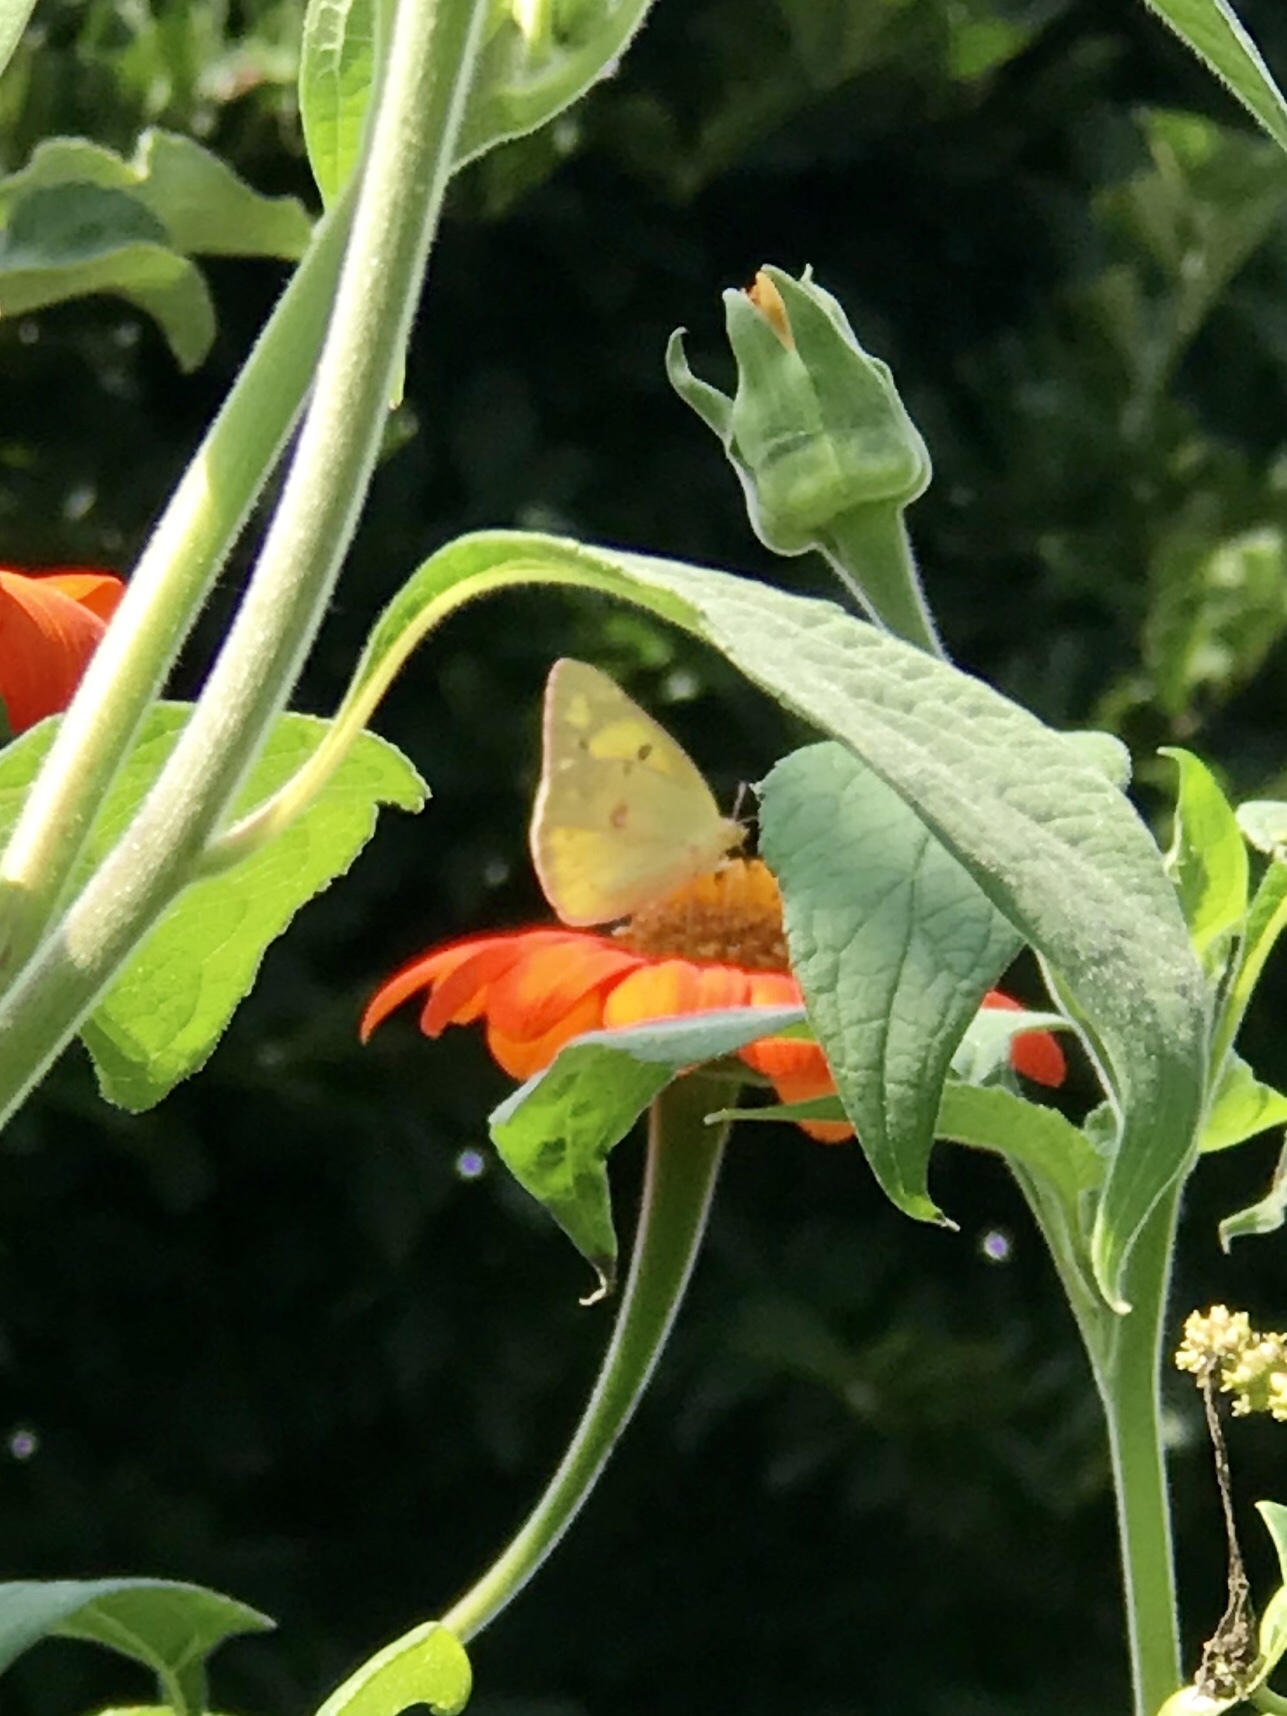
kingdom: Animalia
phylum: Arthropoda
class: Insecta
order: Lepidoptera
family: Pieridae
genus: Colias
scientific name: Colias eurytheme
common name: Alfalfa butterfly
